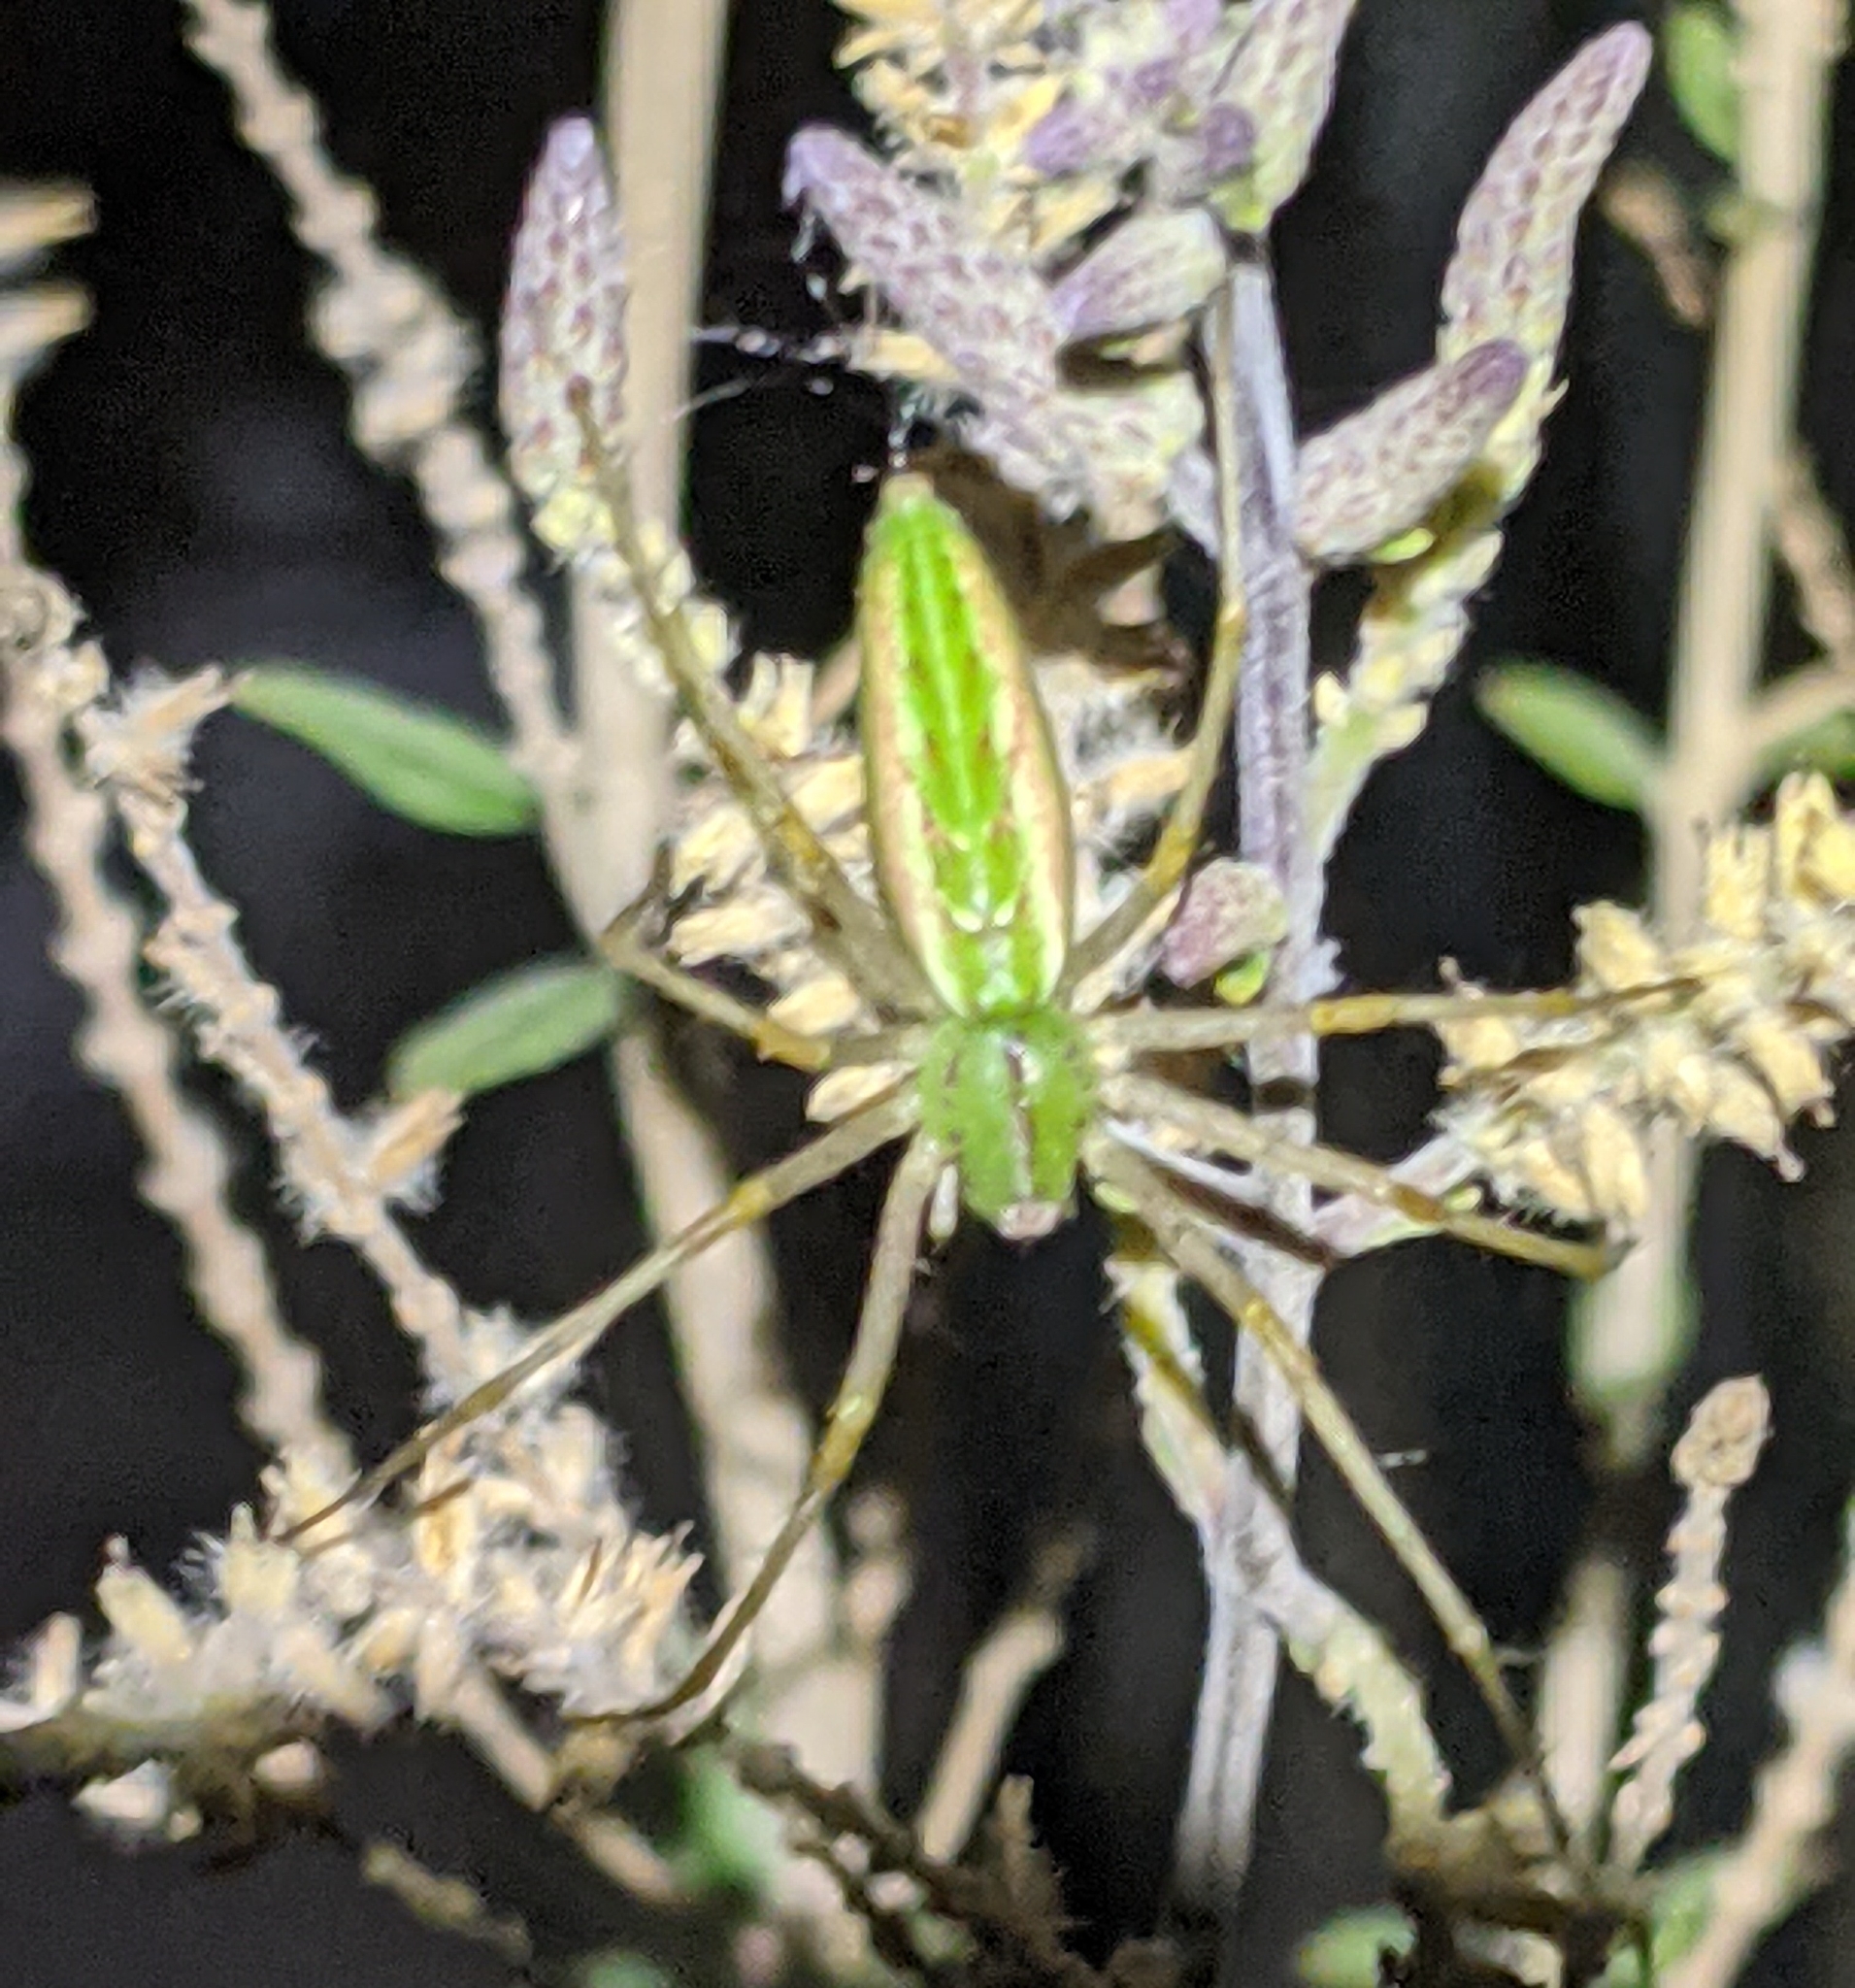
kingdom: Animalia
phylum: Arthropoda
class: Arachnida
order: Araneae
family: Oxyopidae
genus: Peucetia
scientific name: Peucetia longipalpis
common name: Lynx spiders
